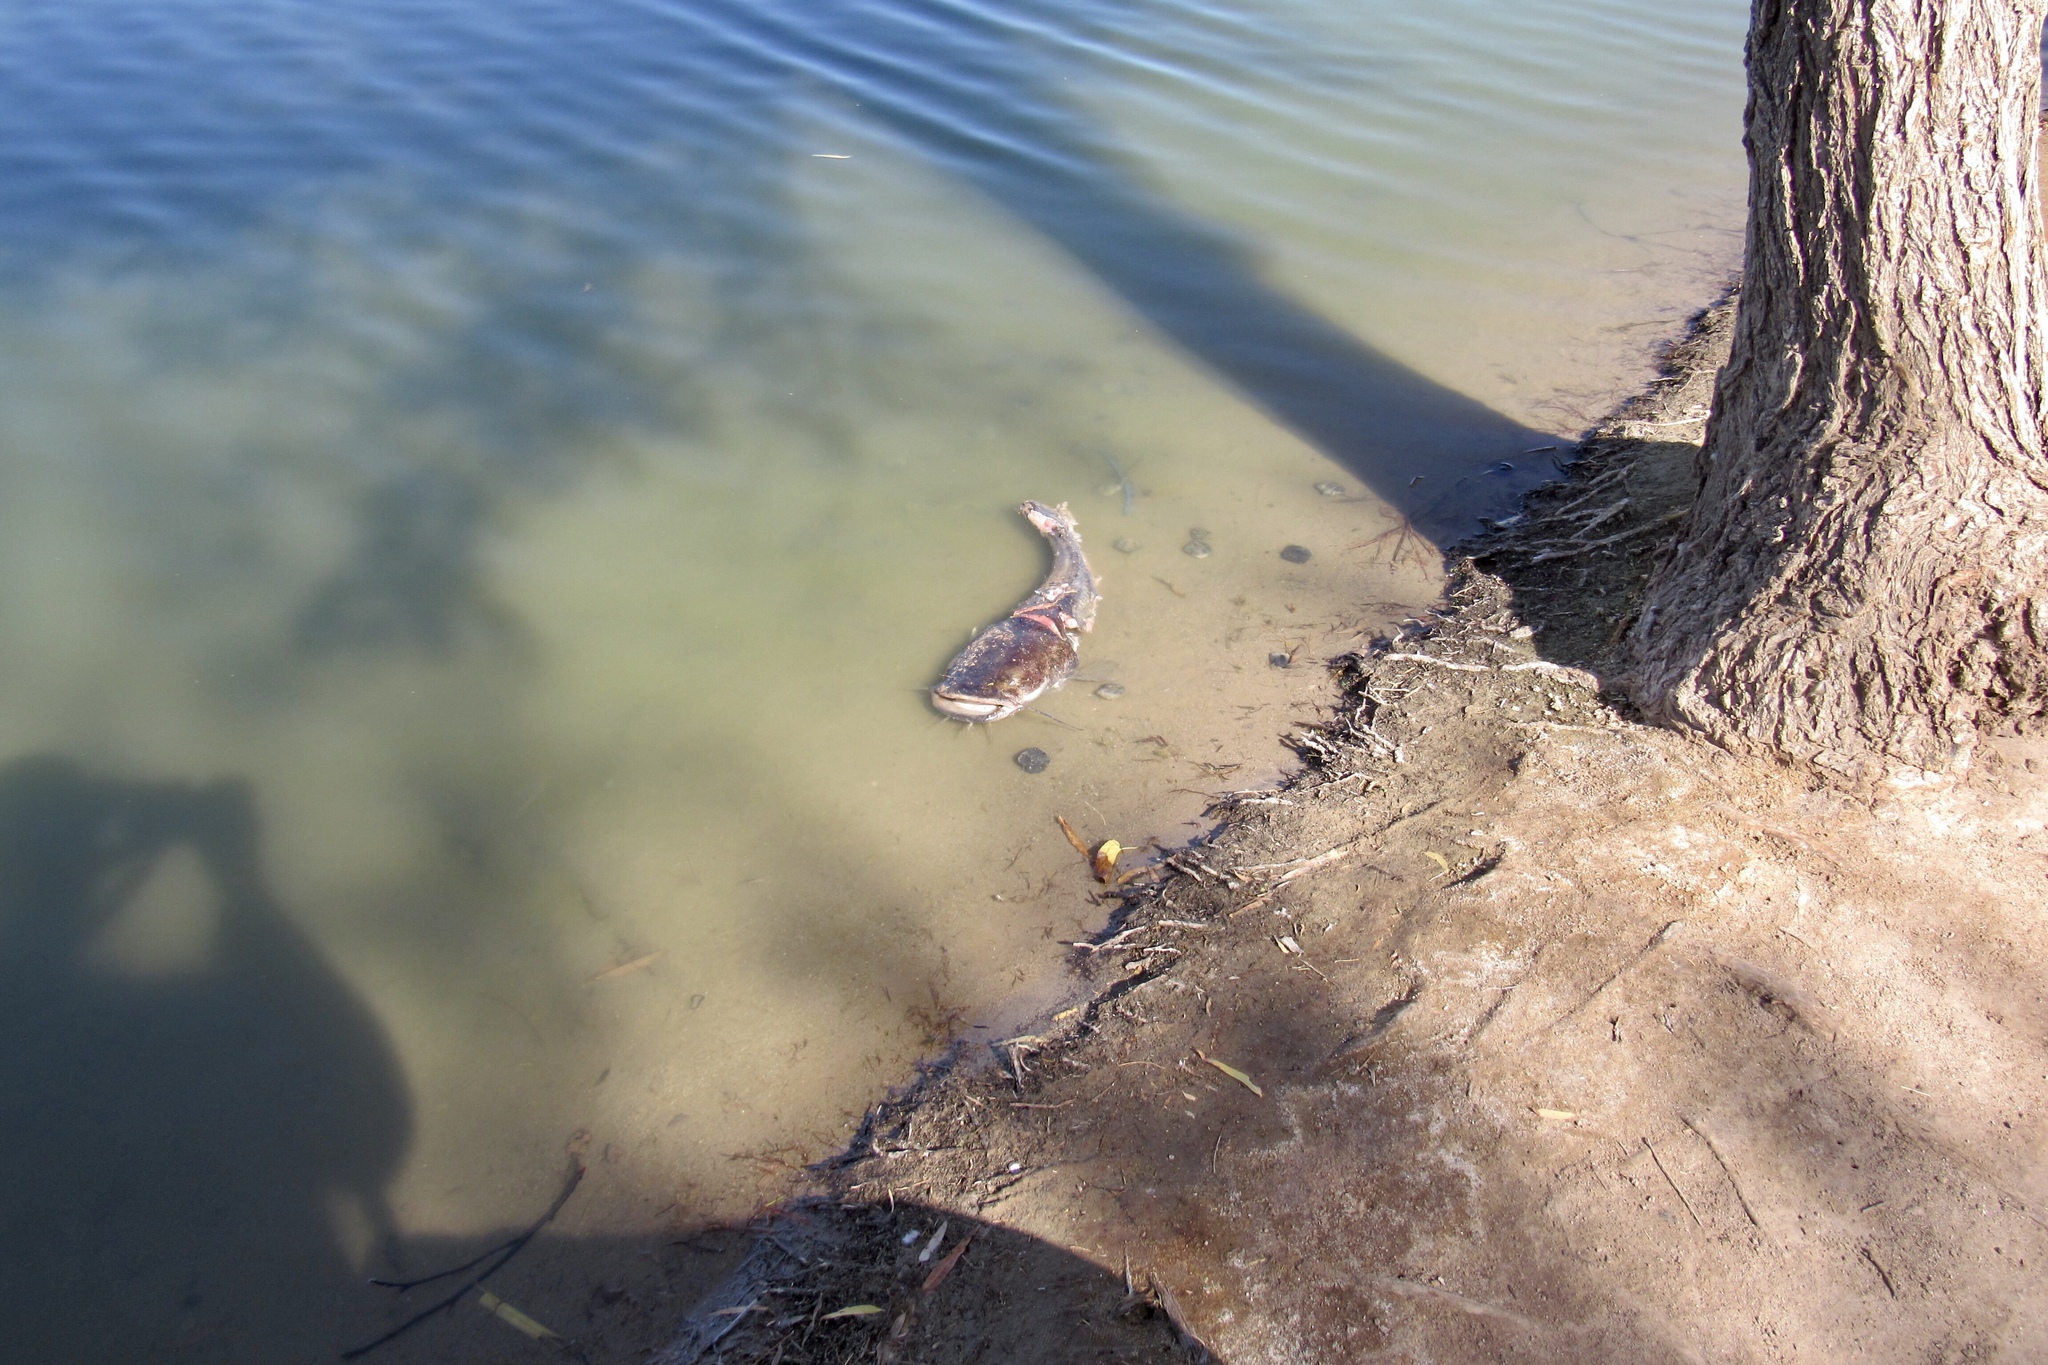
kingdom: Animalia
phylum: Chordata
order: Siluriformes
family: Ictaluridae
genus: Pylodictis
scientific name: Pylodictis olivaris
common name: Flathead catfish
